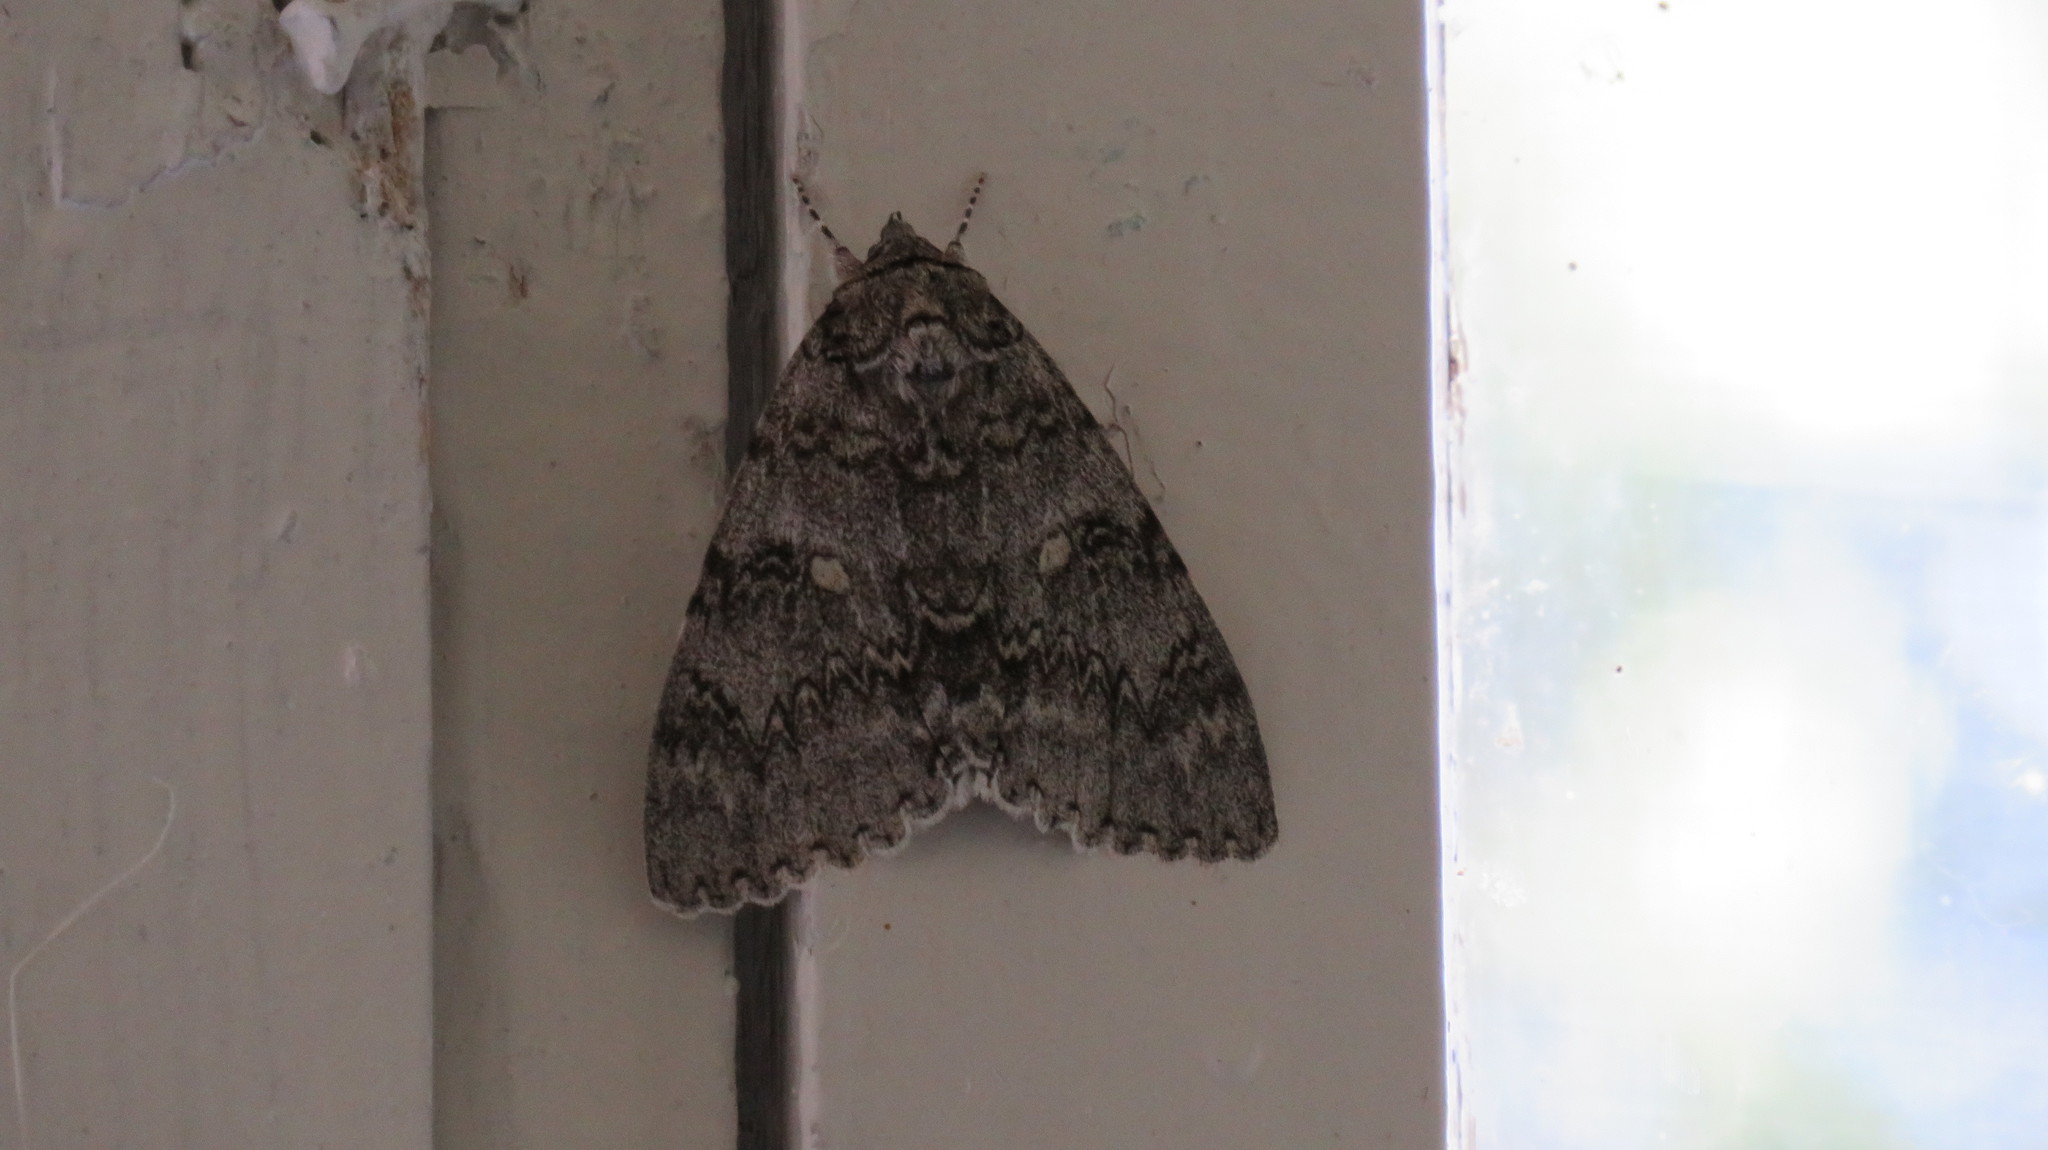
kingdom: Animalia
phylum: Arthropoda
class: Insecta
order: Lepidoptera
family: Erebidae
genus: Catocala
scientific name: Catocala fraxini
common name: Clifden nonpareil
